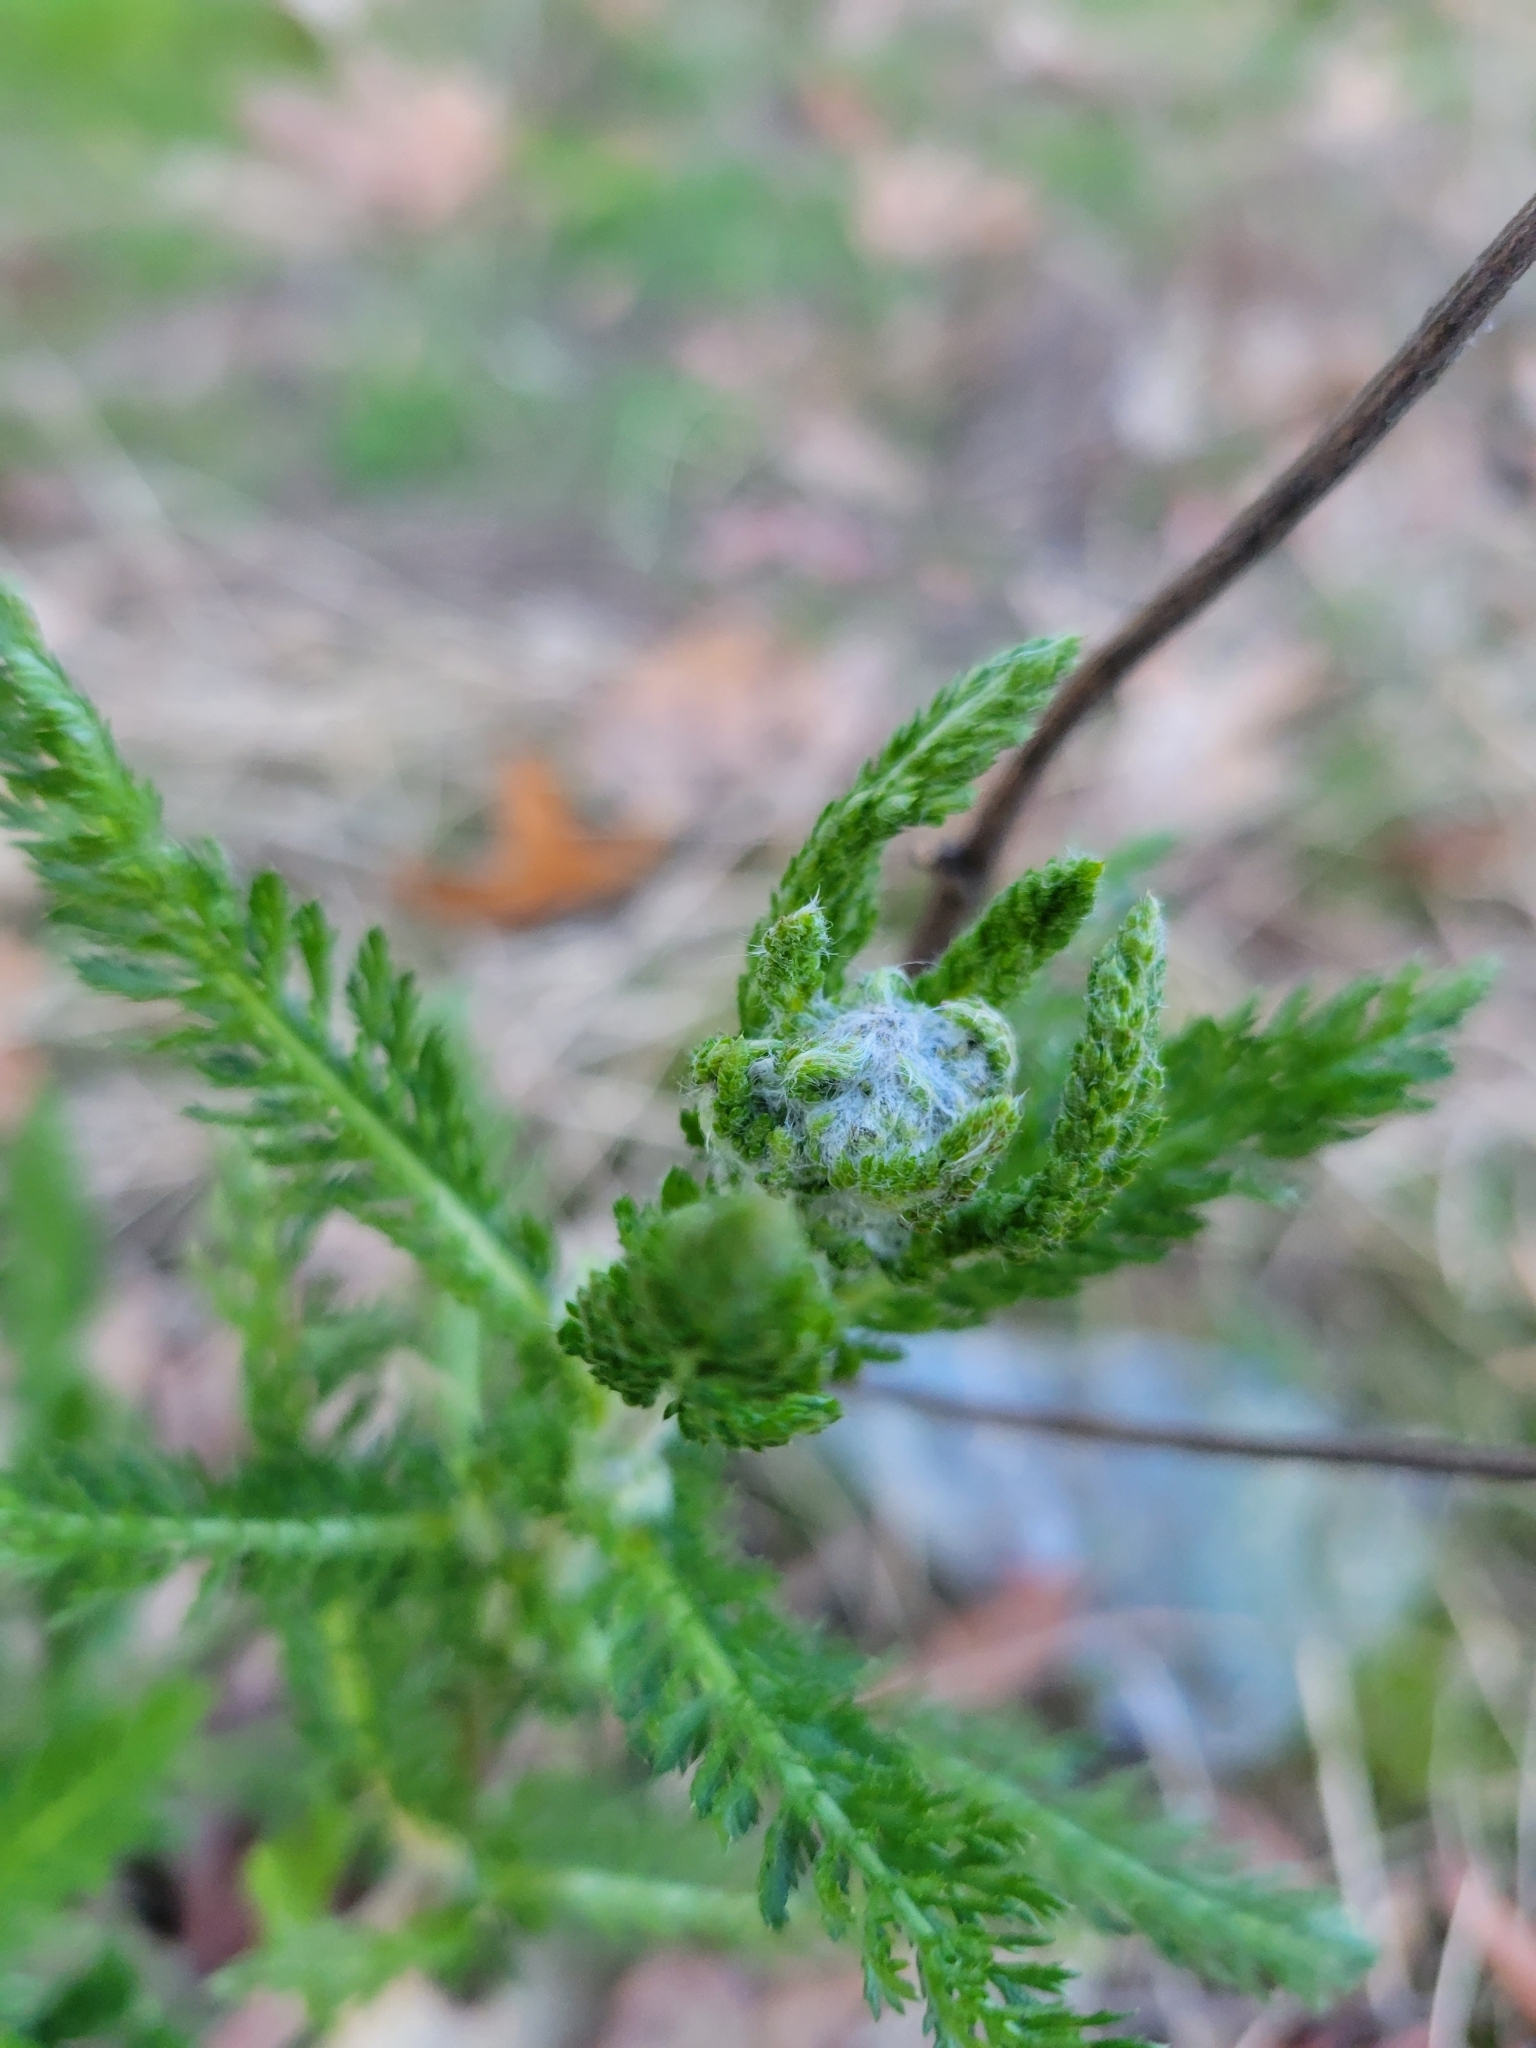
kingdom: Plantae
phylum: Tracheophyta
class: Magnoliopsida
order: Asterales
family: Asteraceae
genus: Achillea
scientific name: Achillea millefolium
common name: Yarrow
